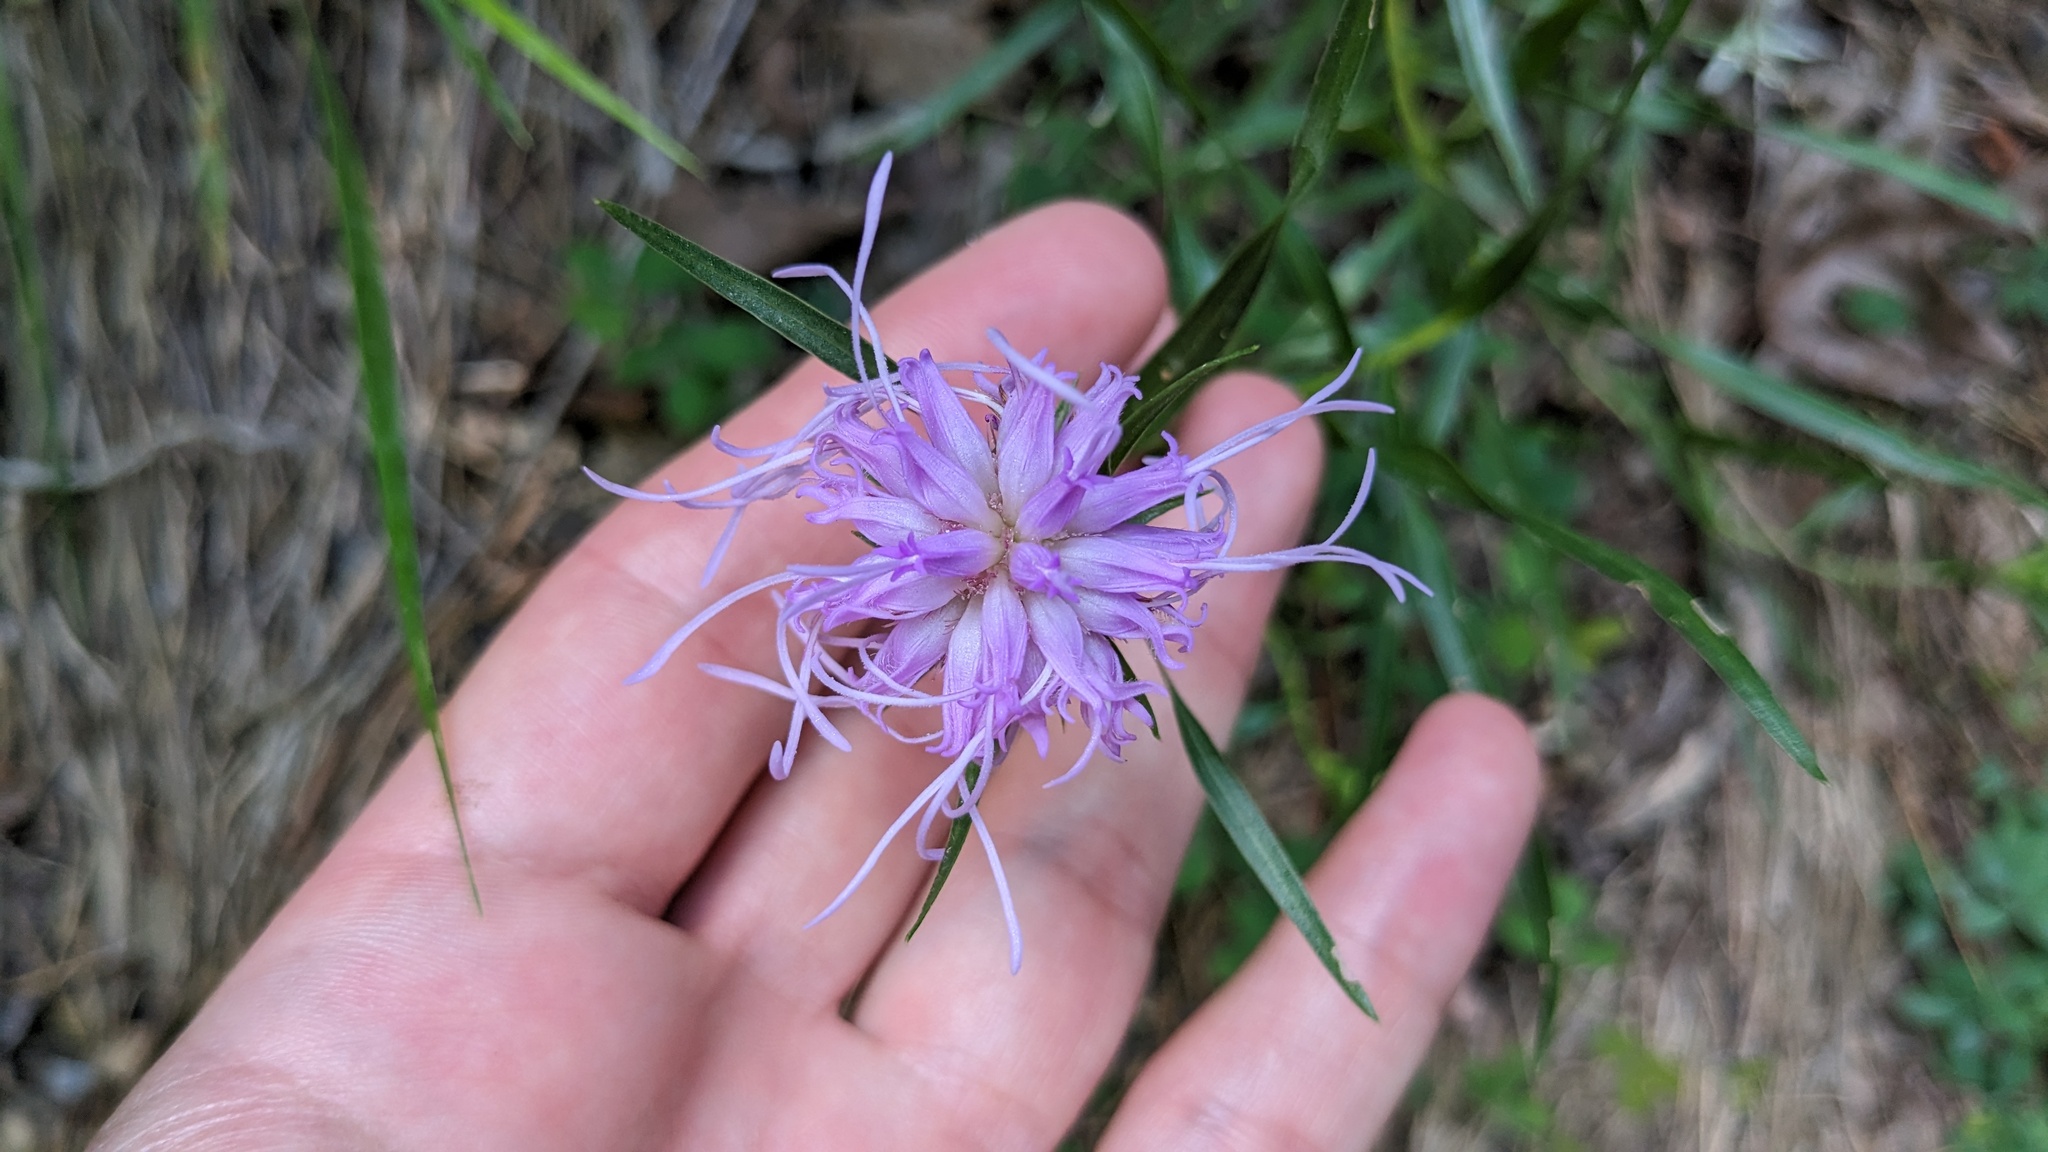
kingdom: Plantae
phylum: Tracheophyta
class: Magnoliopsida
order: Asterales
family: Asteraceae
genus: Liatris
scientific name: Liatris compacta
